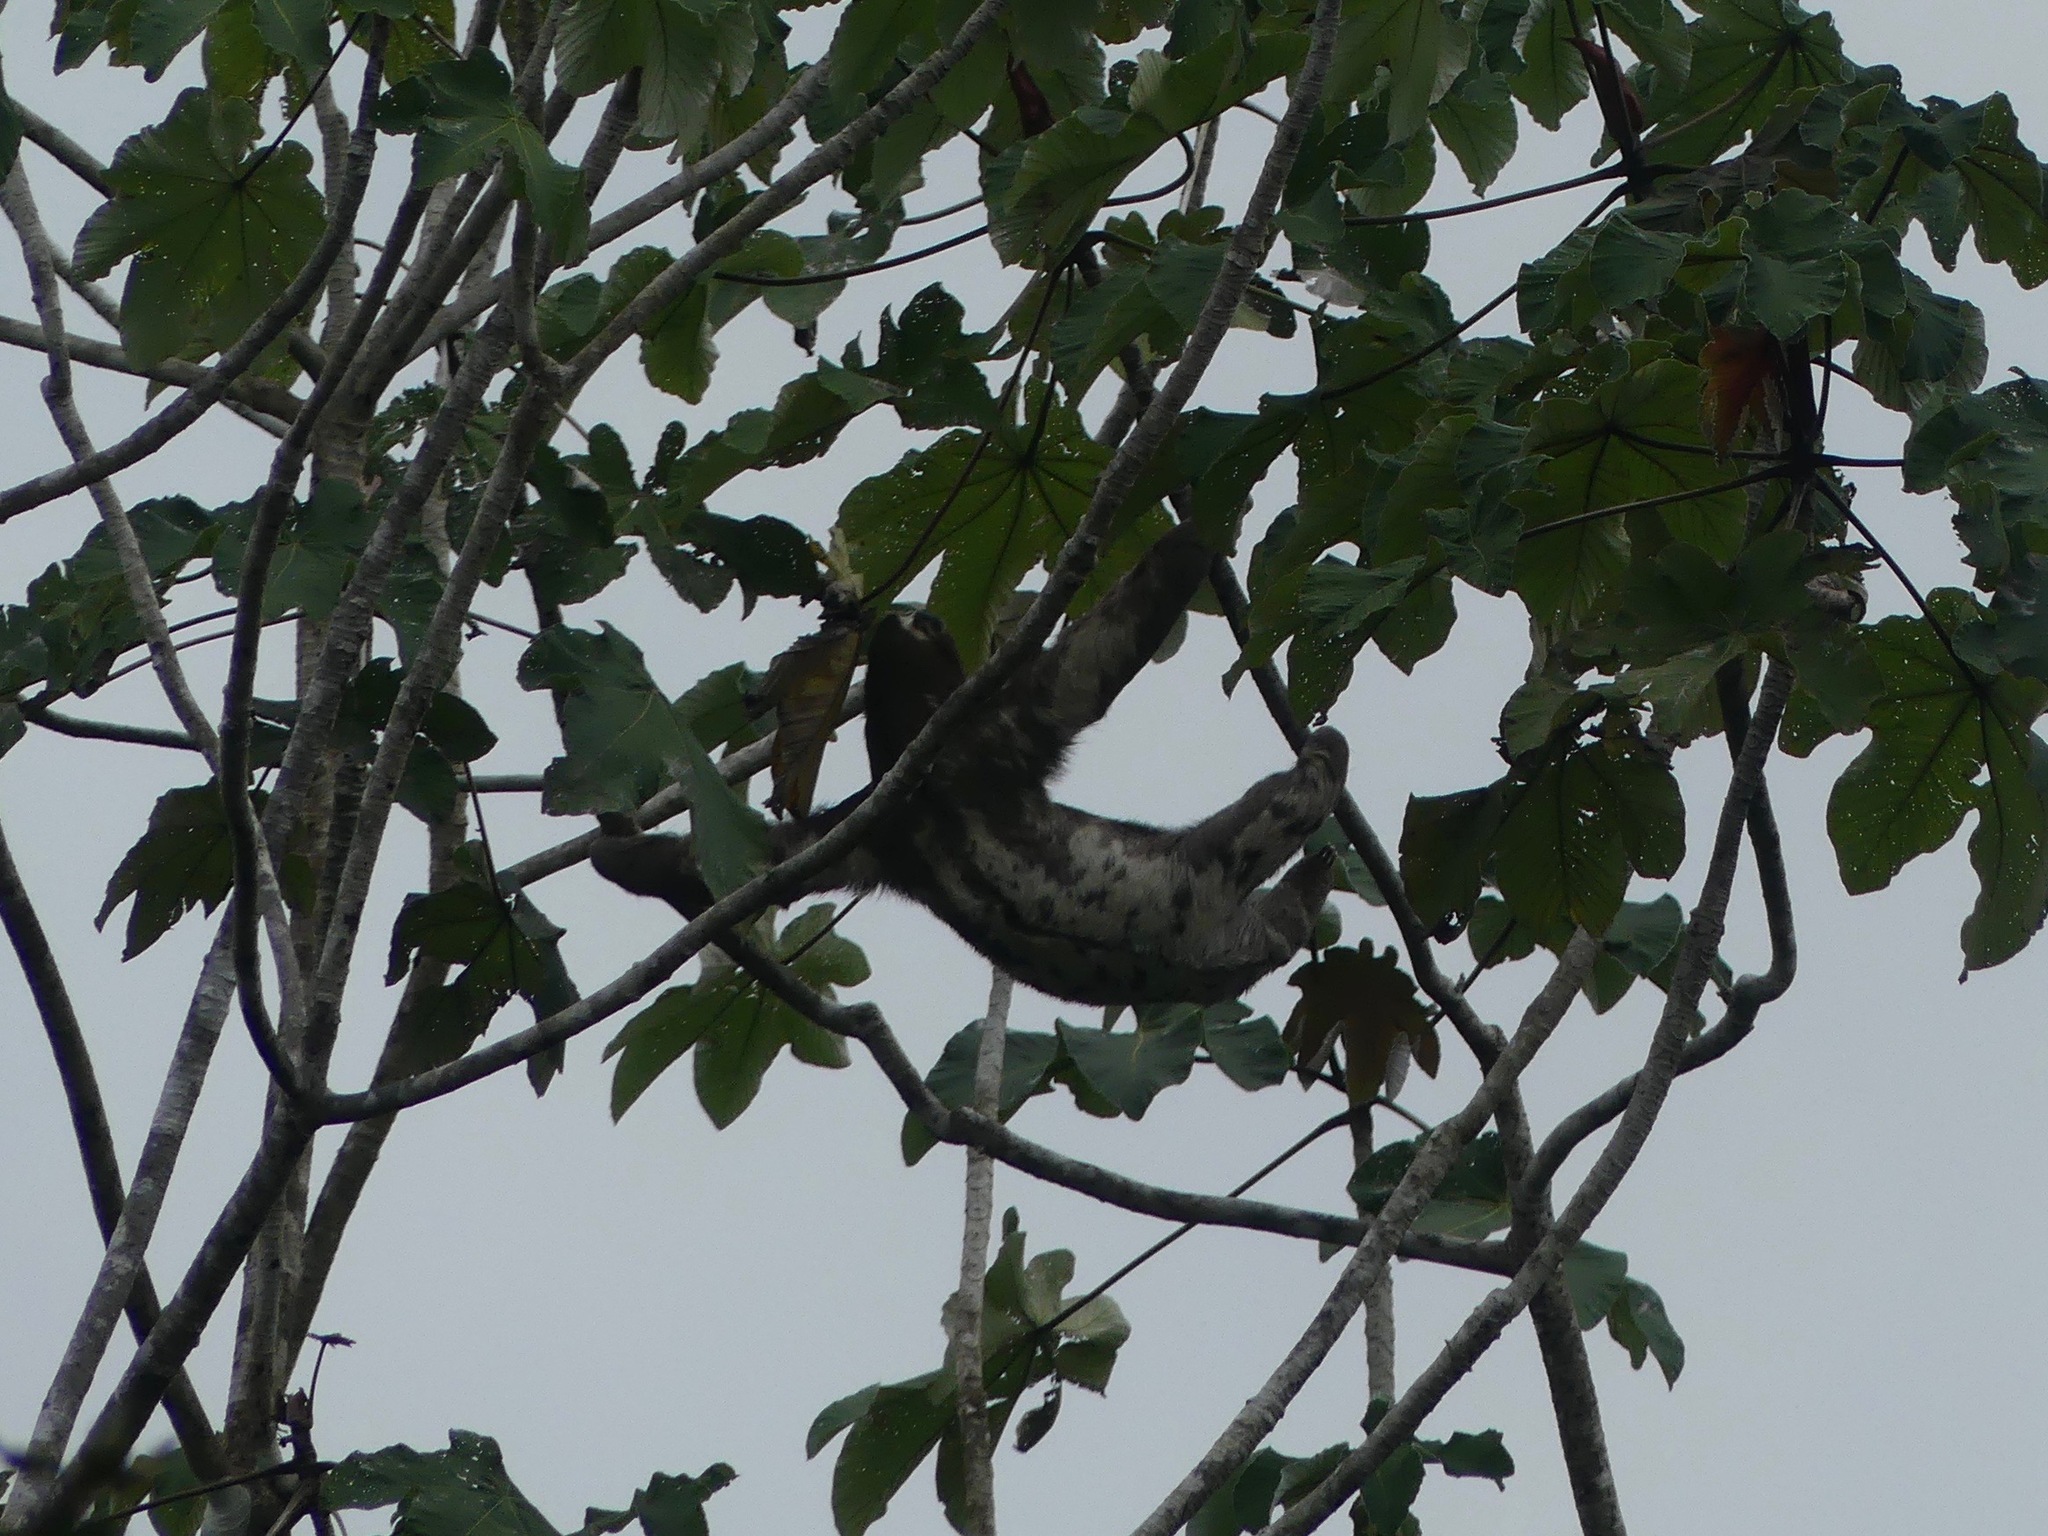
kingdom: Animalia
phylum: Chordata
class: Mammalia
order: Pilosa
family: Bradypodidae
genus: Bradypus
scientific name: Bradypus variegatus
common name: Brown-throated three-toed sloth
